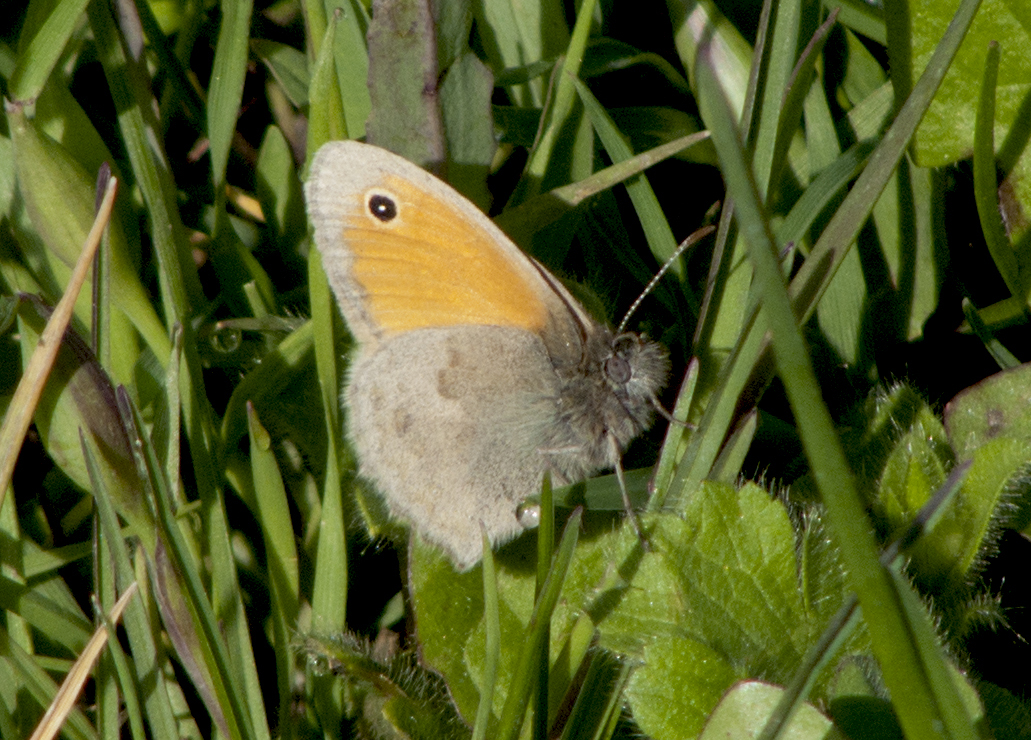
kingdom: Animalia
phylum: Arthropoda
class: Insecta
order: Lepidoptera
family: Nymphalidae
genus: Coenonympha
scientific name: Coenonympha pamphilus
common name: Small heath
